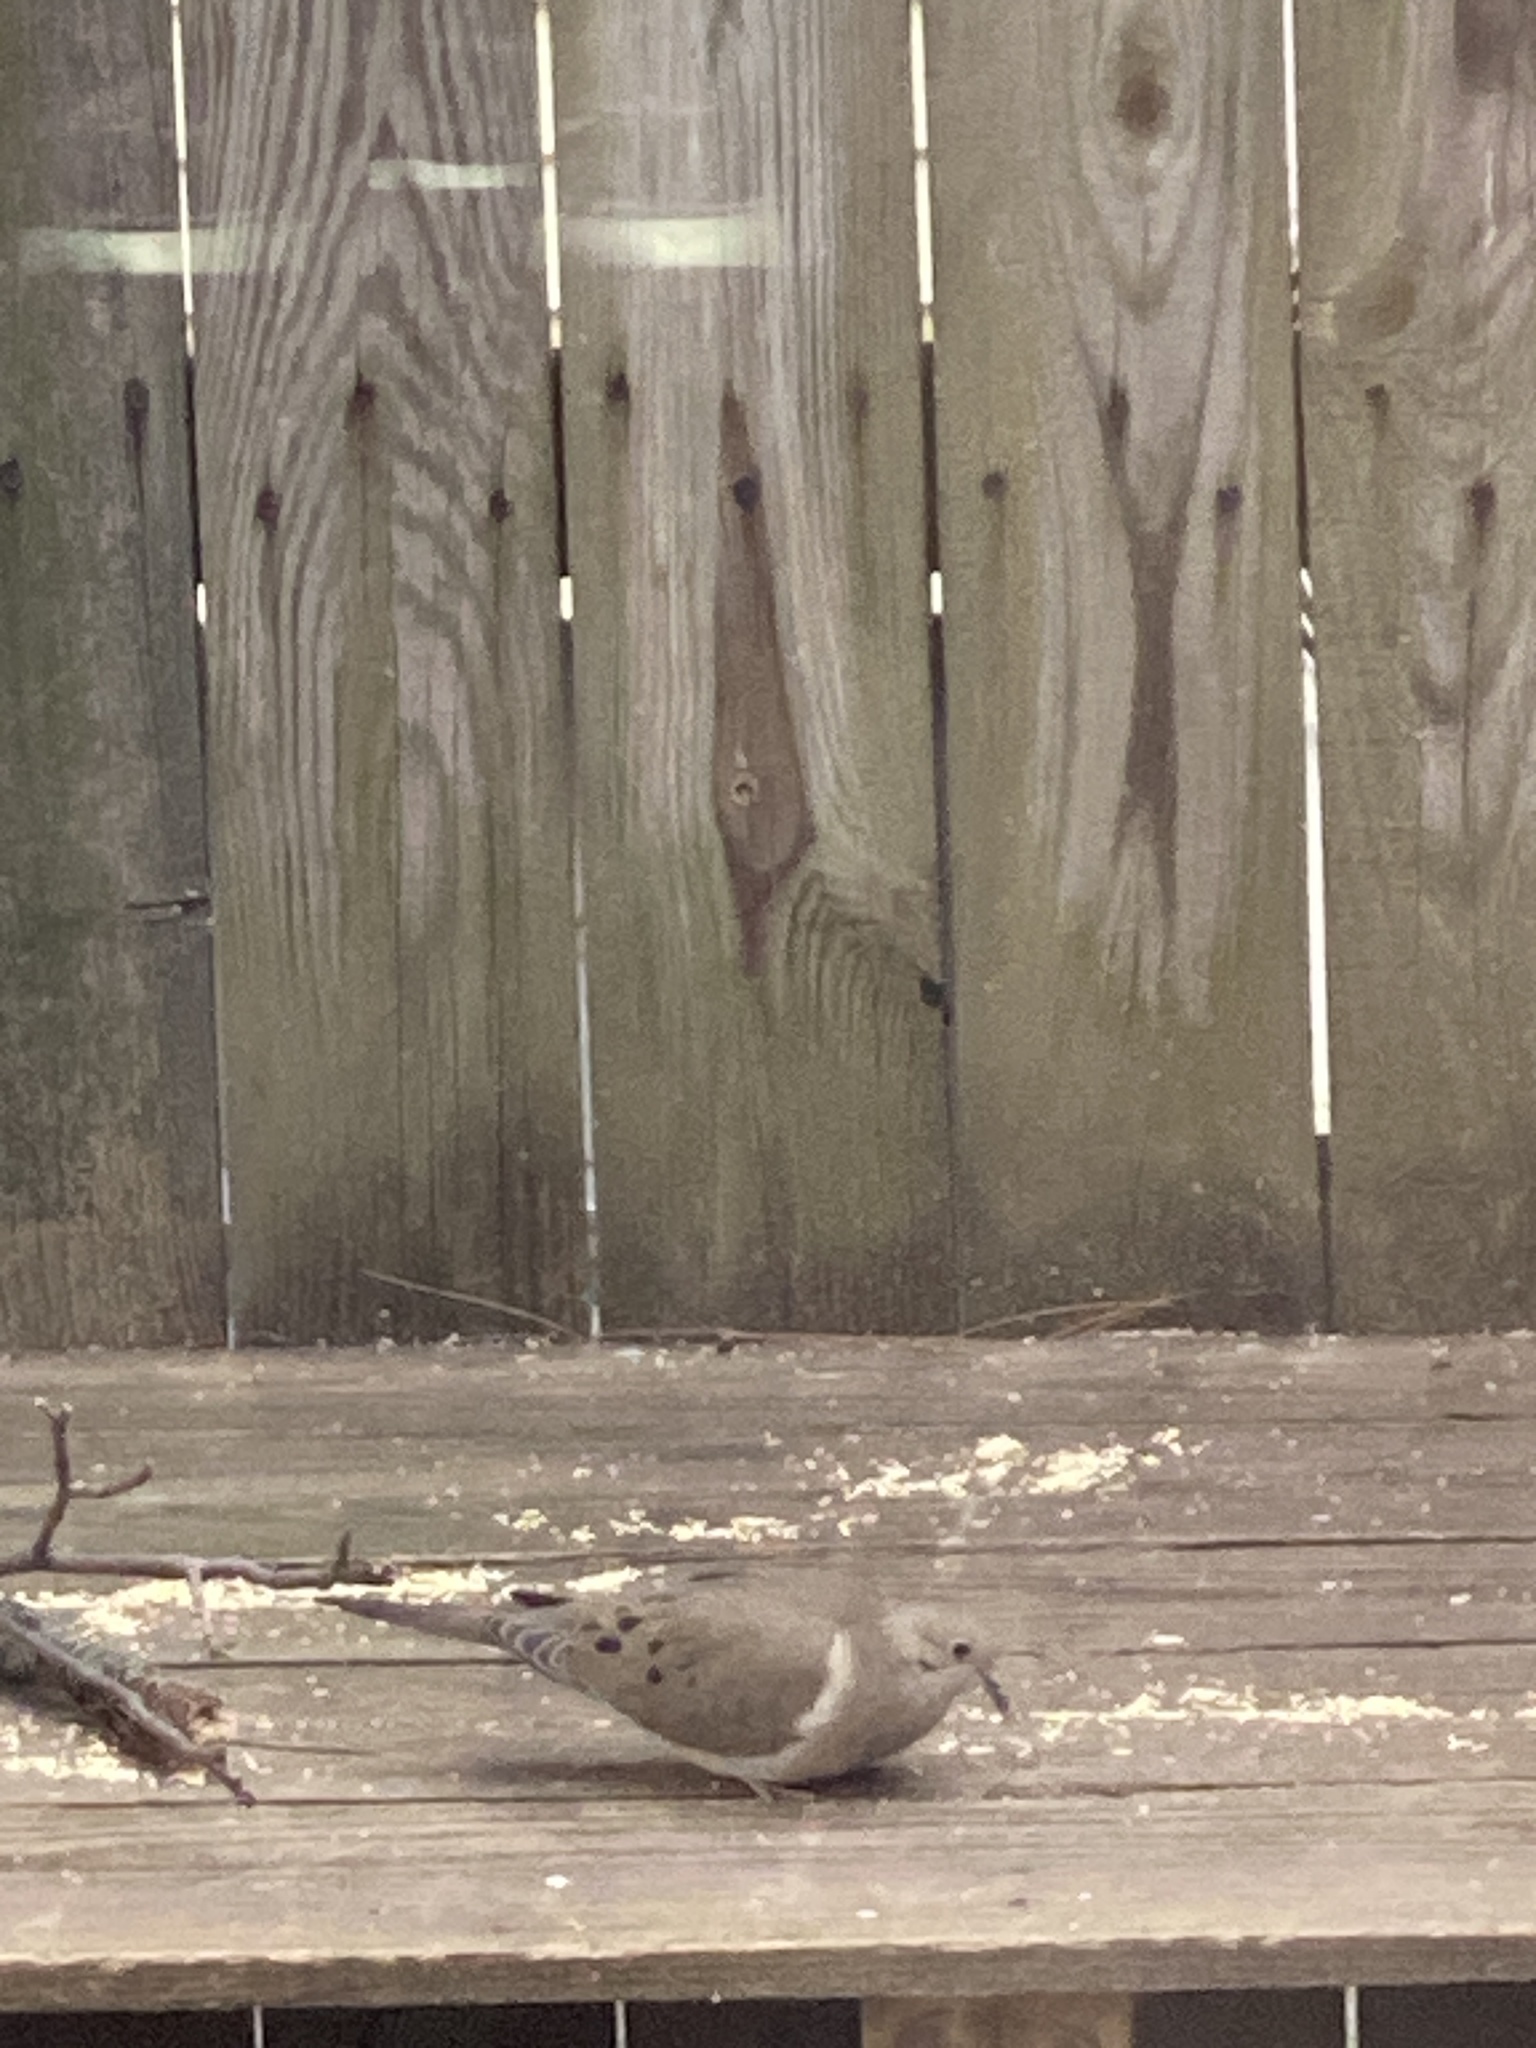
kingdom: Animalia
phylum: Chordata
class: Aves
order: Columbiformes
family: Columbidae
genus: Zenaida
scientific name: Zenaida macroura
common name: Mourning dove
